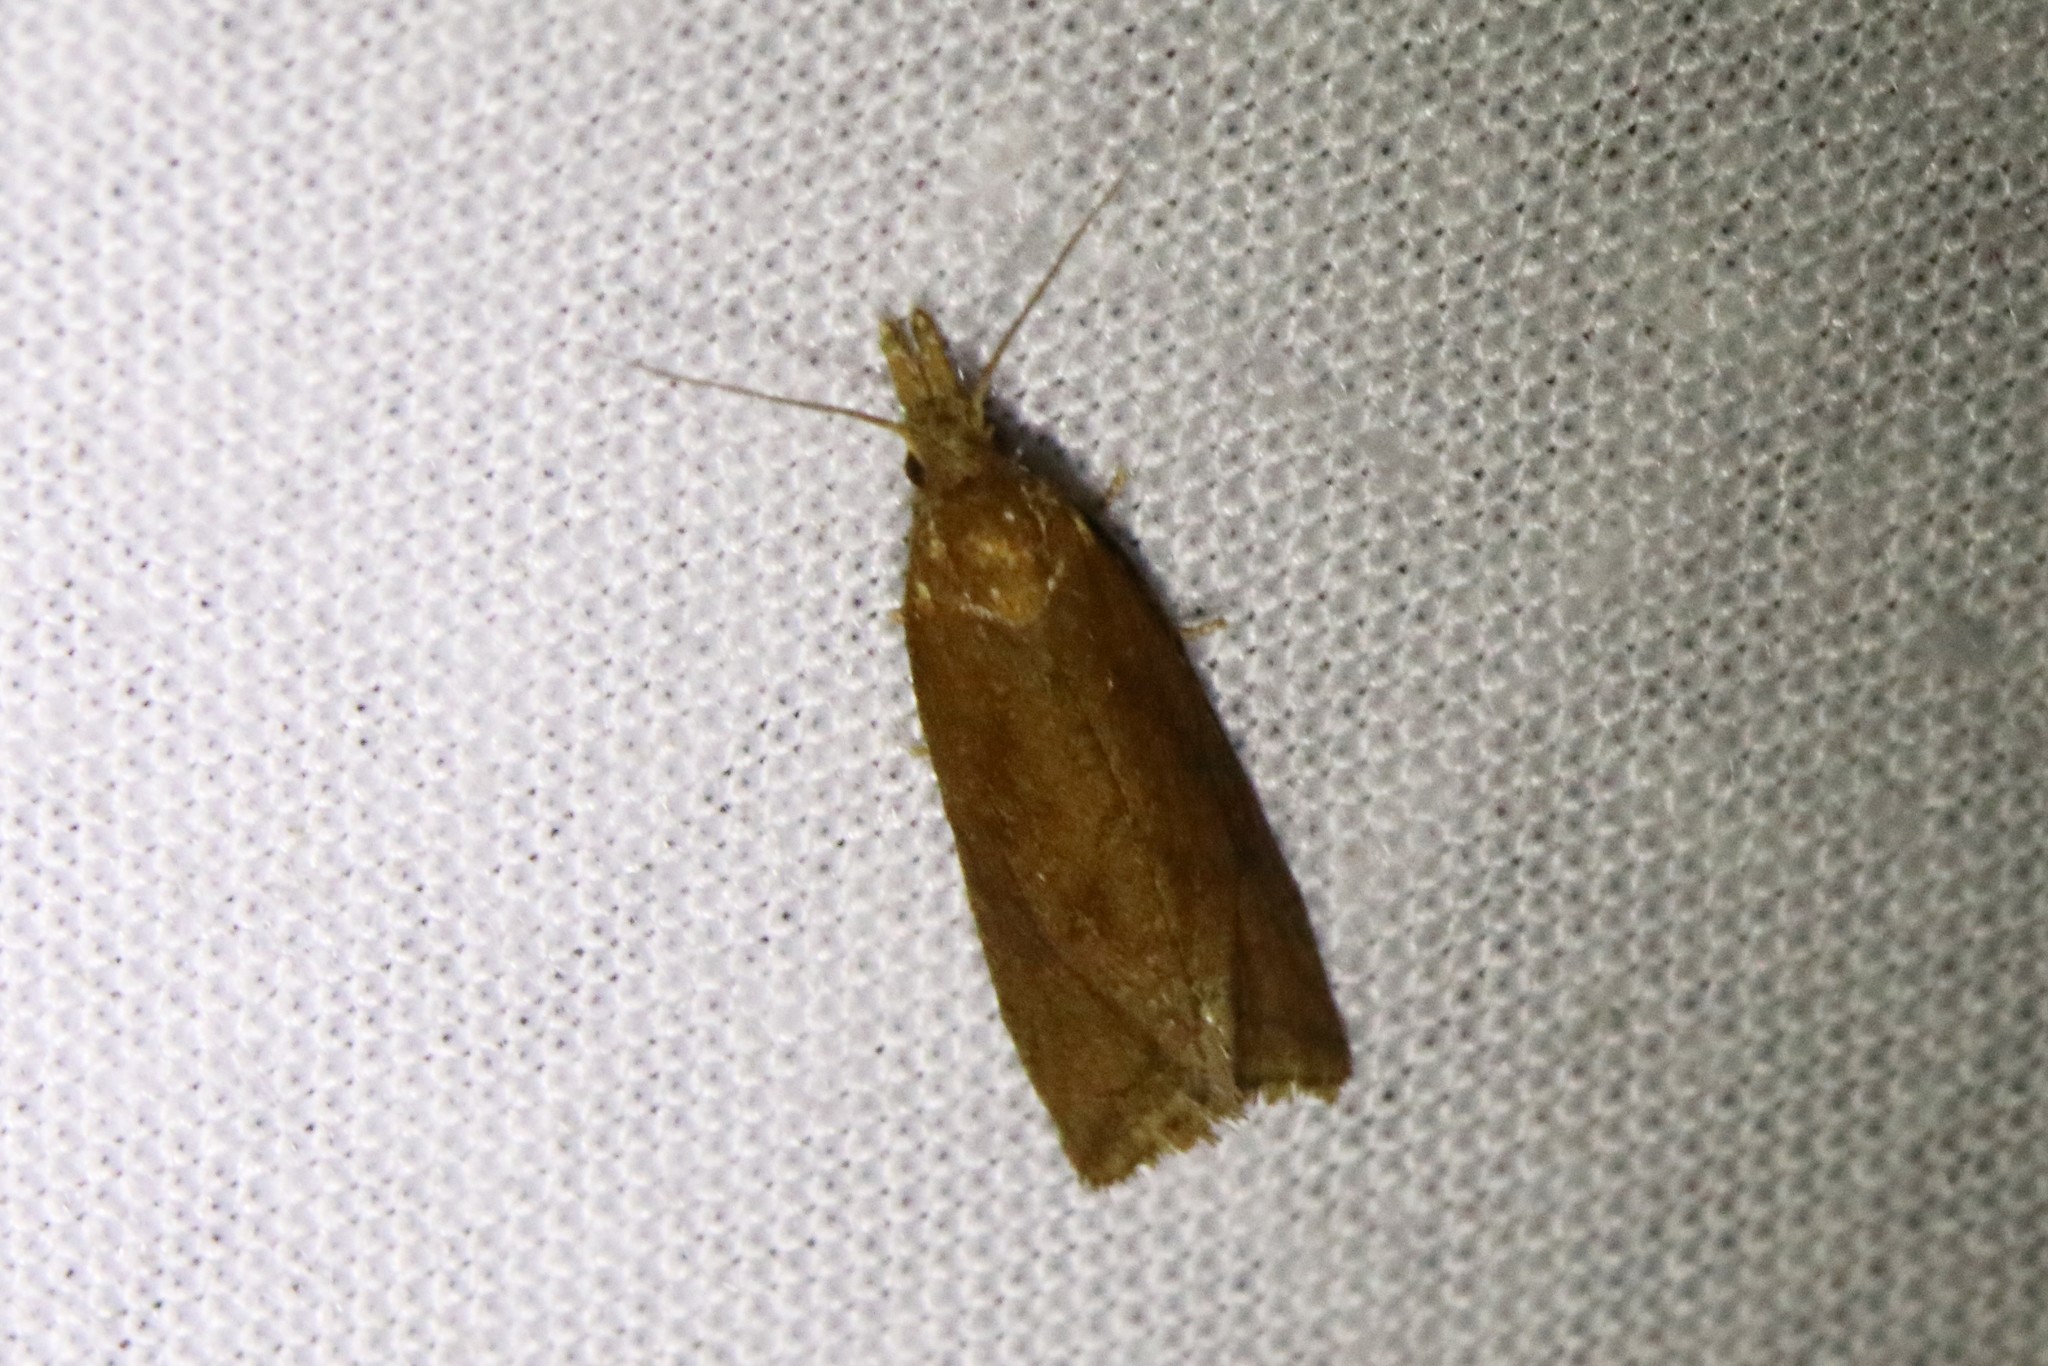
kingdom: Animalia
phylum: Arthropoda
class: Insecta
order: Lepidoptera
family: Tortricidae
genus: Aethes
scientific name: Aethes biscana
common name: Reddish aethes
